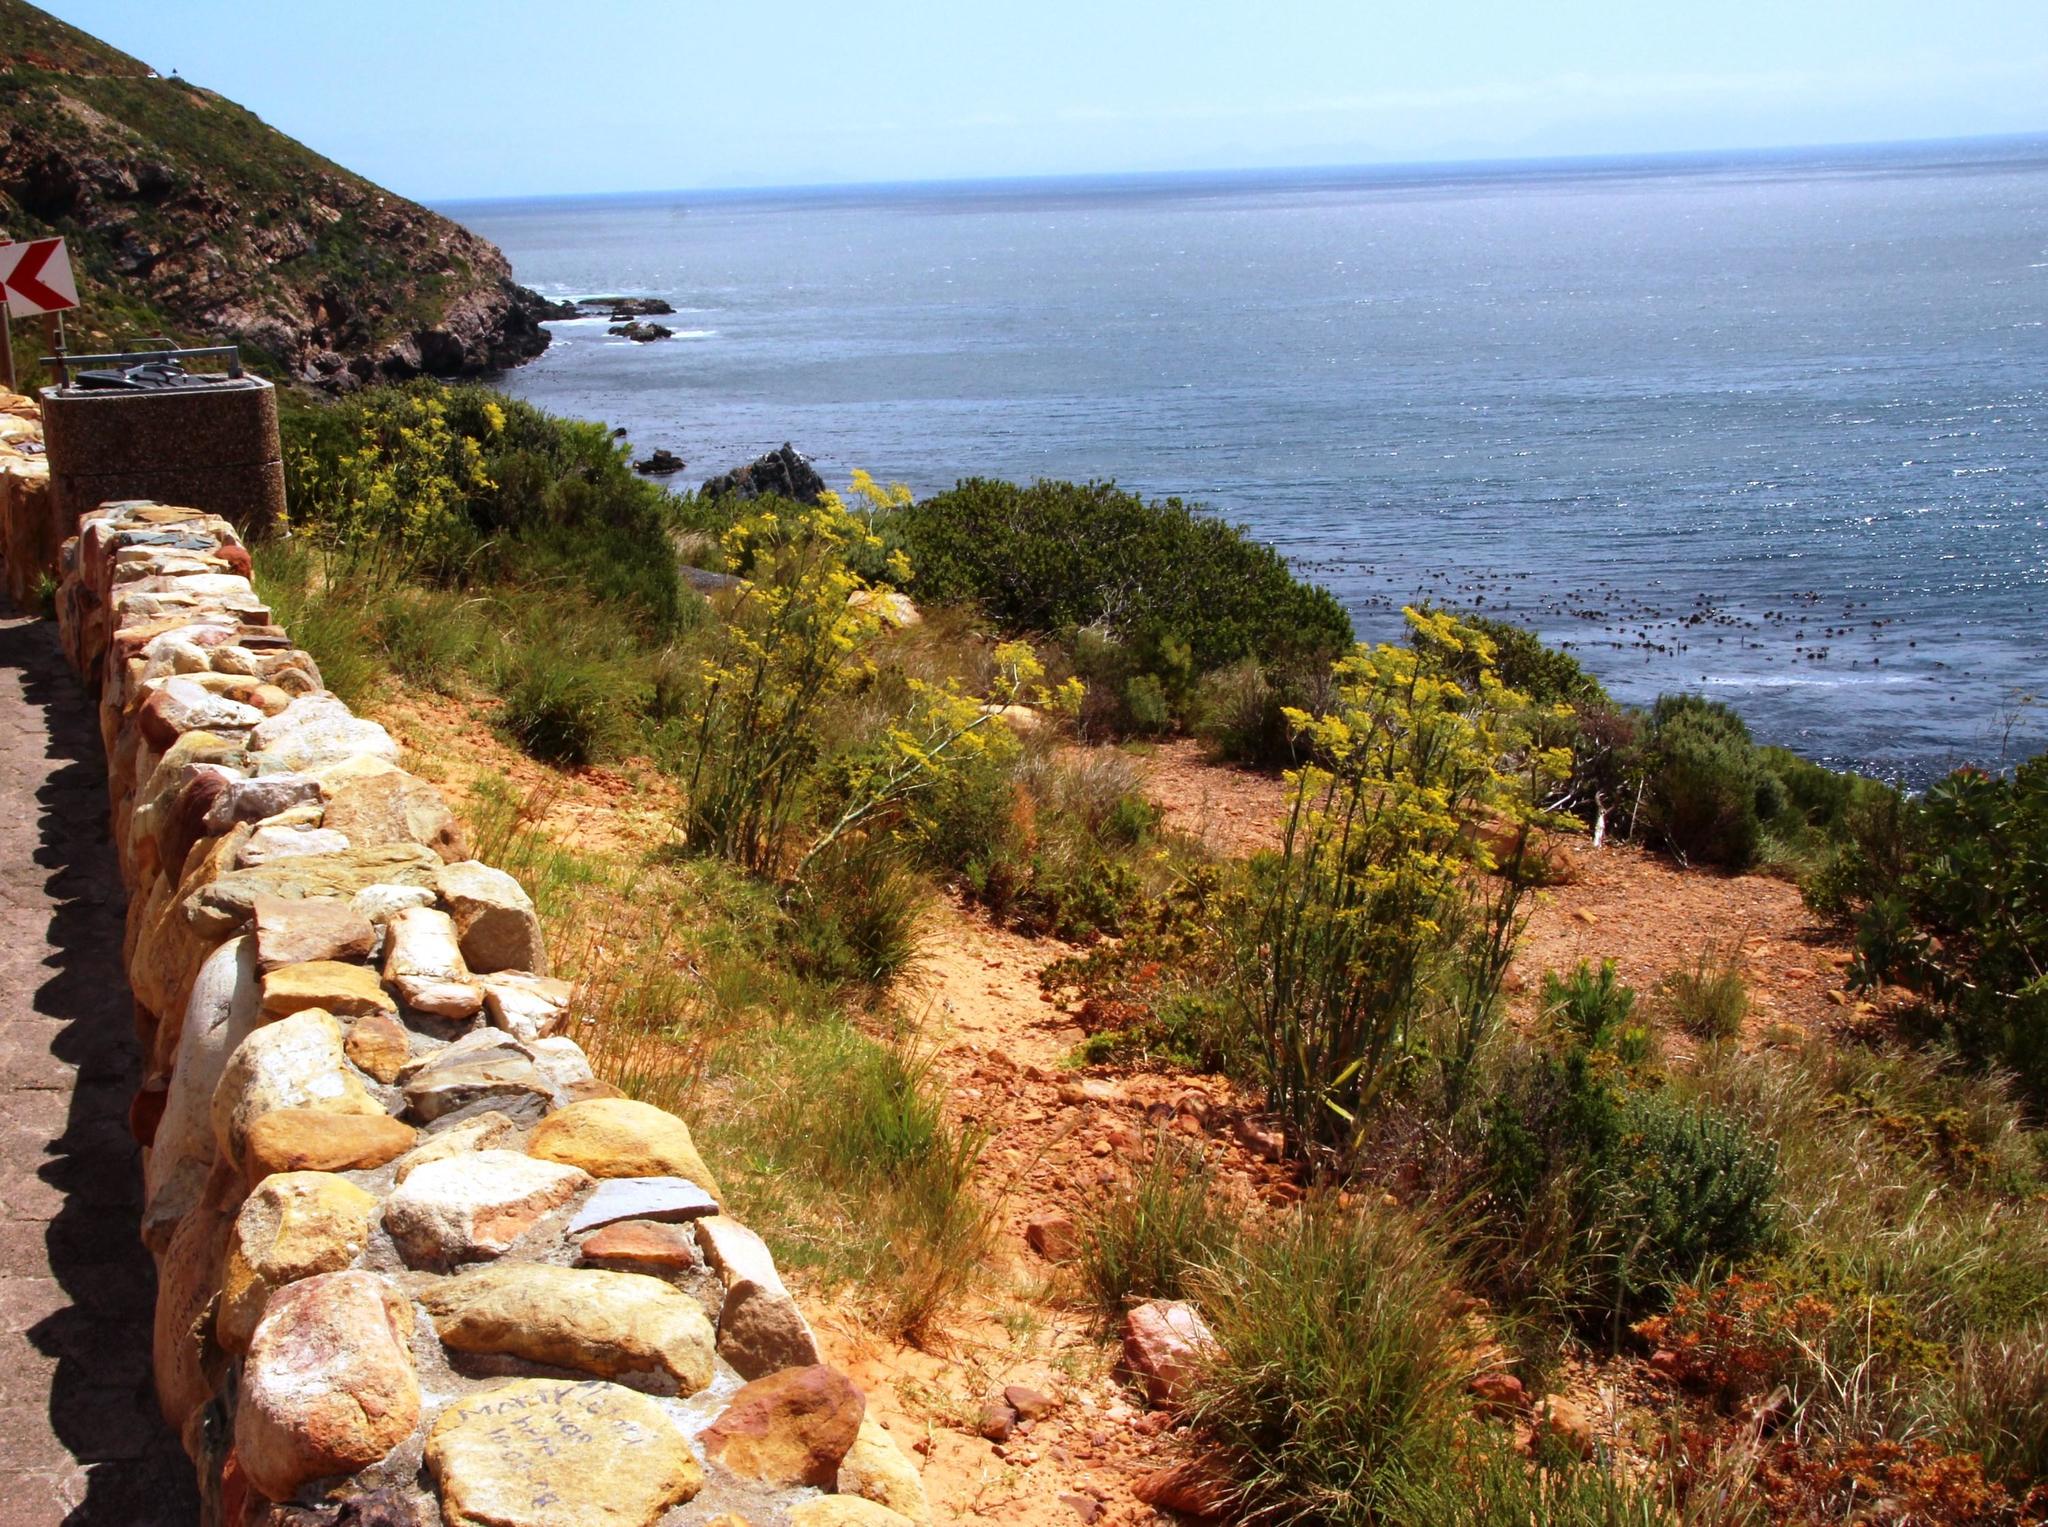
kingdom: Plantae
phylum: Tracheophyta
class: Magnoliopsida
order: Apiales
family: Apiaceae
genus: Foeniculum
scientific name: Foeniculum vulgare
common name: Fennel
